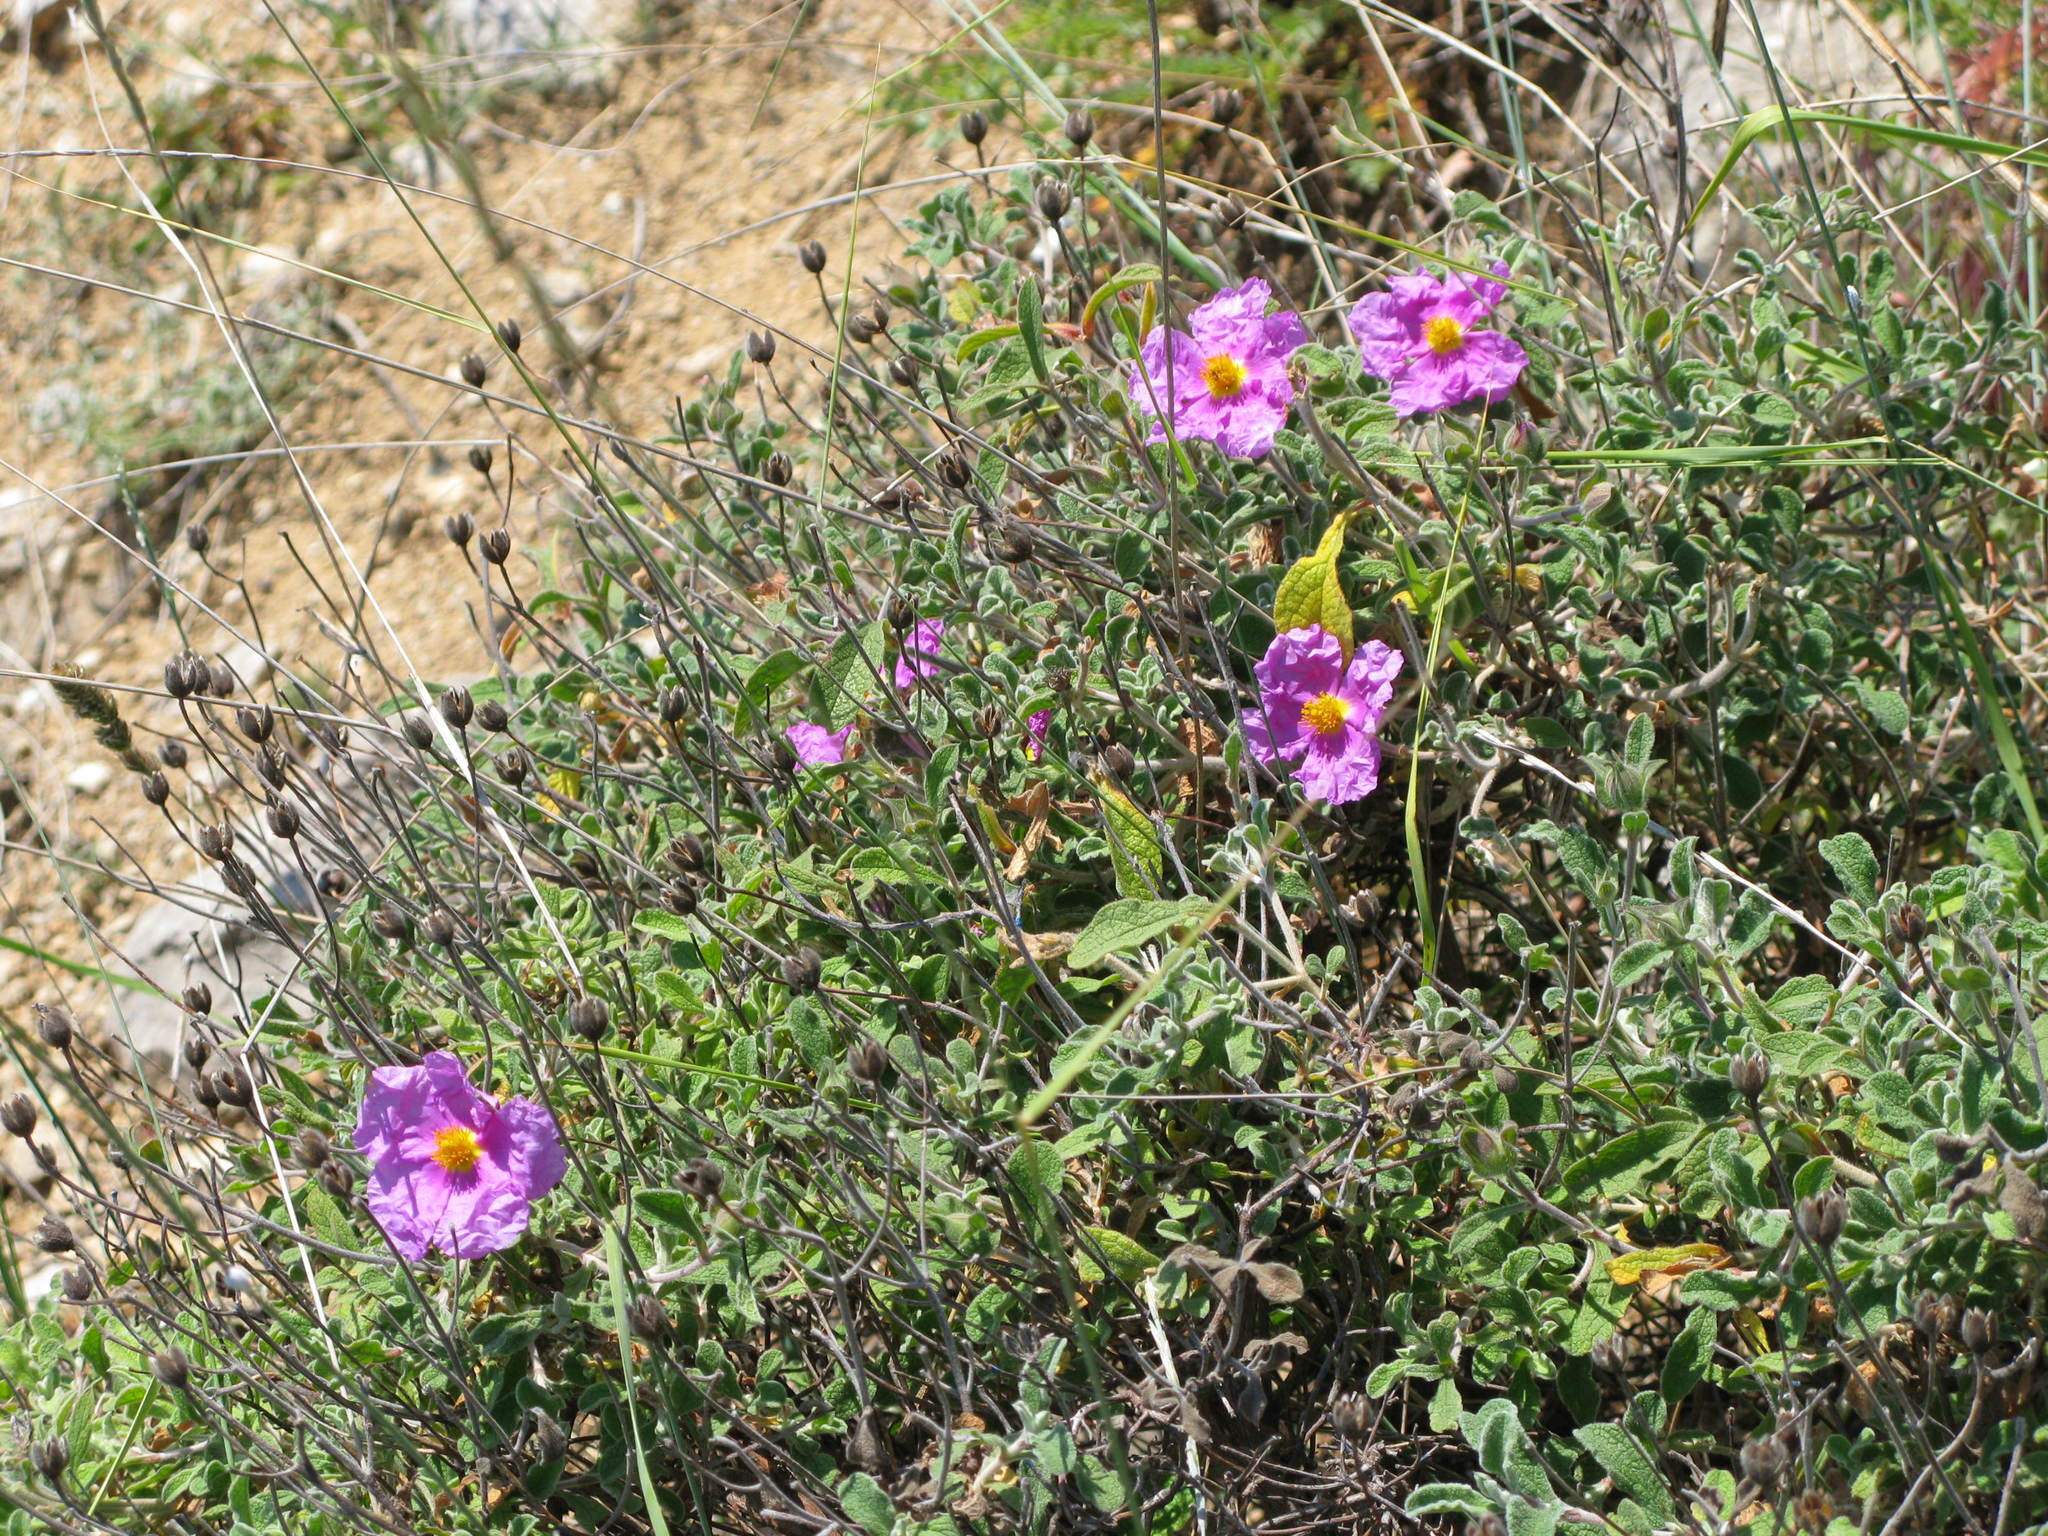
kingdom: Plantae
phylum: Tracheophyta
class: Magnoliopsida
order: Malvales
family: Cistaceae
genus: Cistus
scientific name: Cistus tauricus
